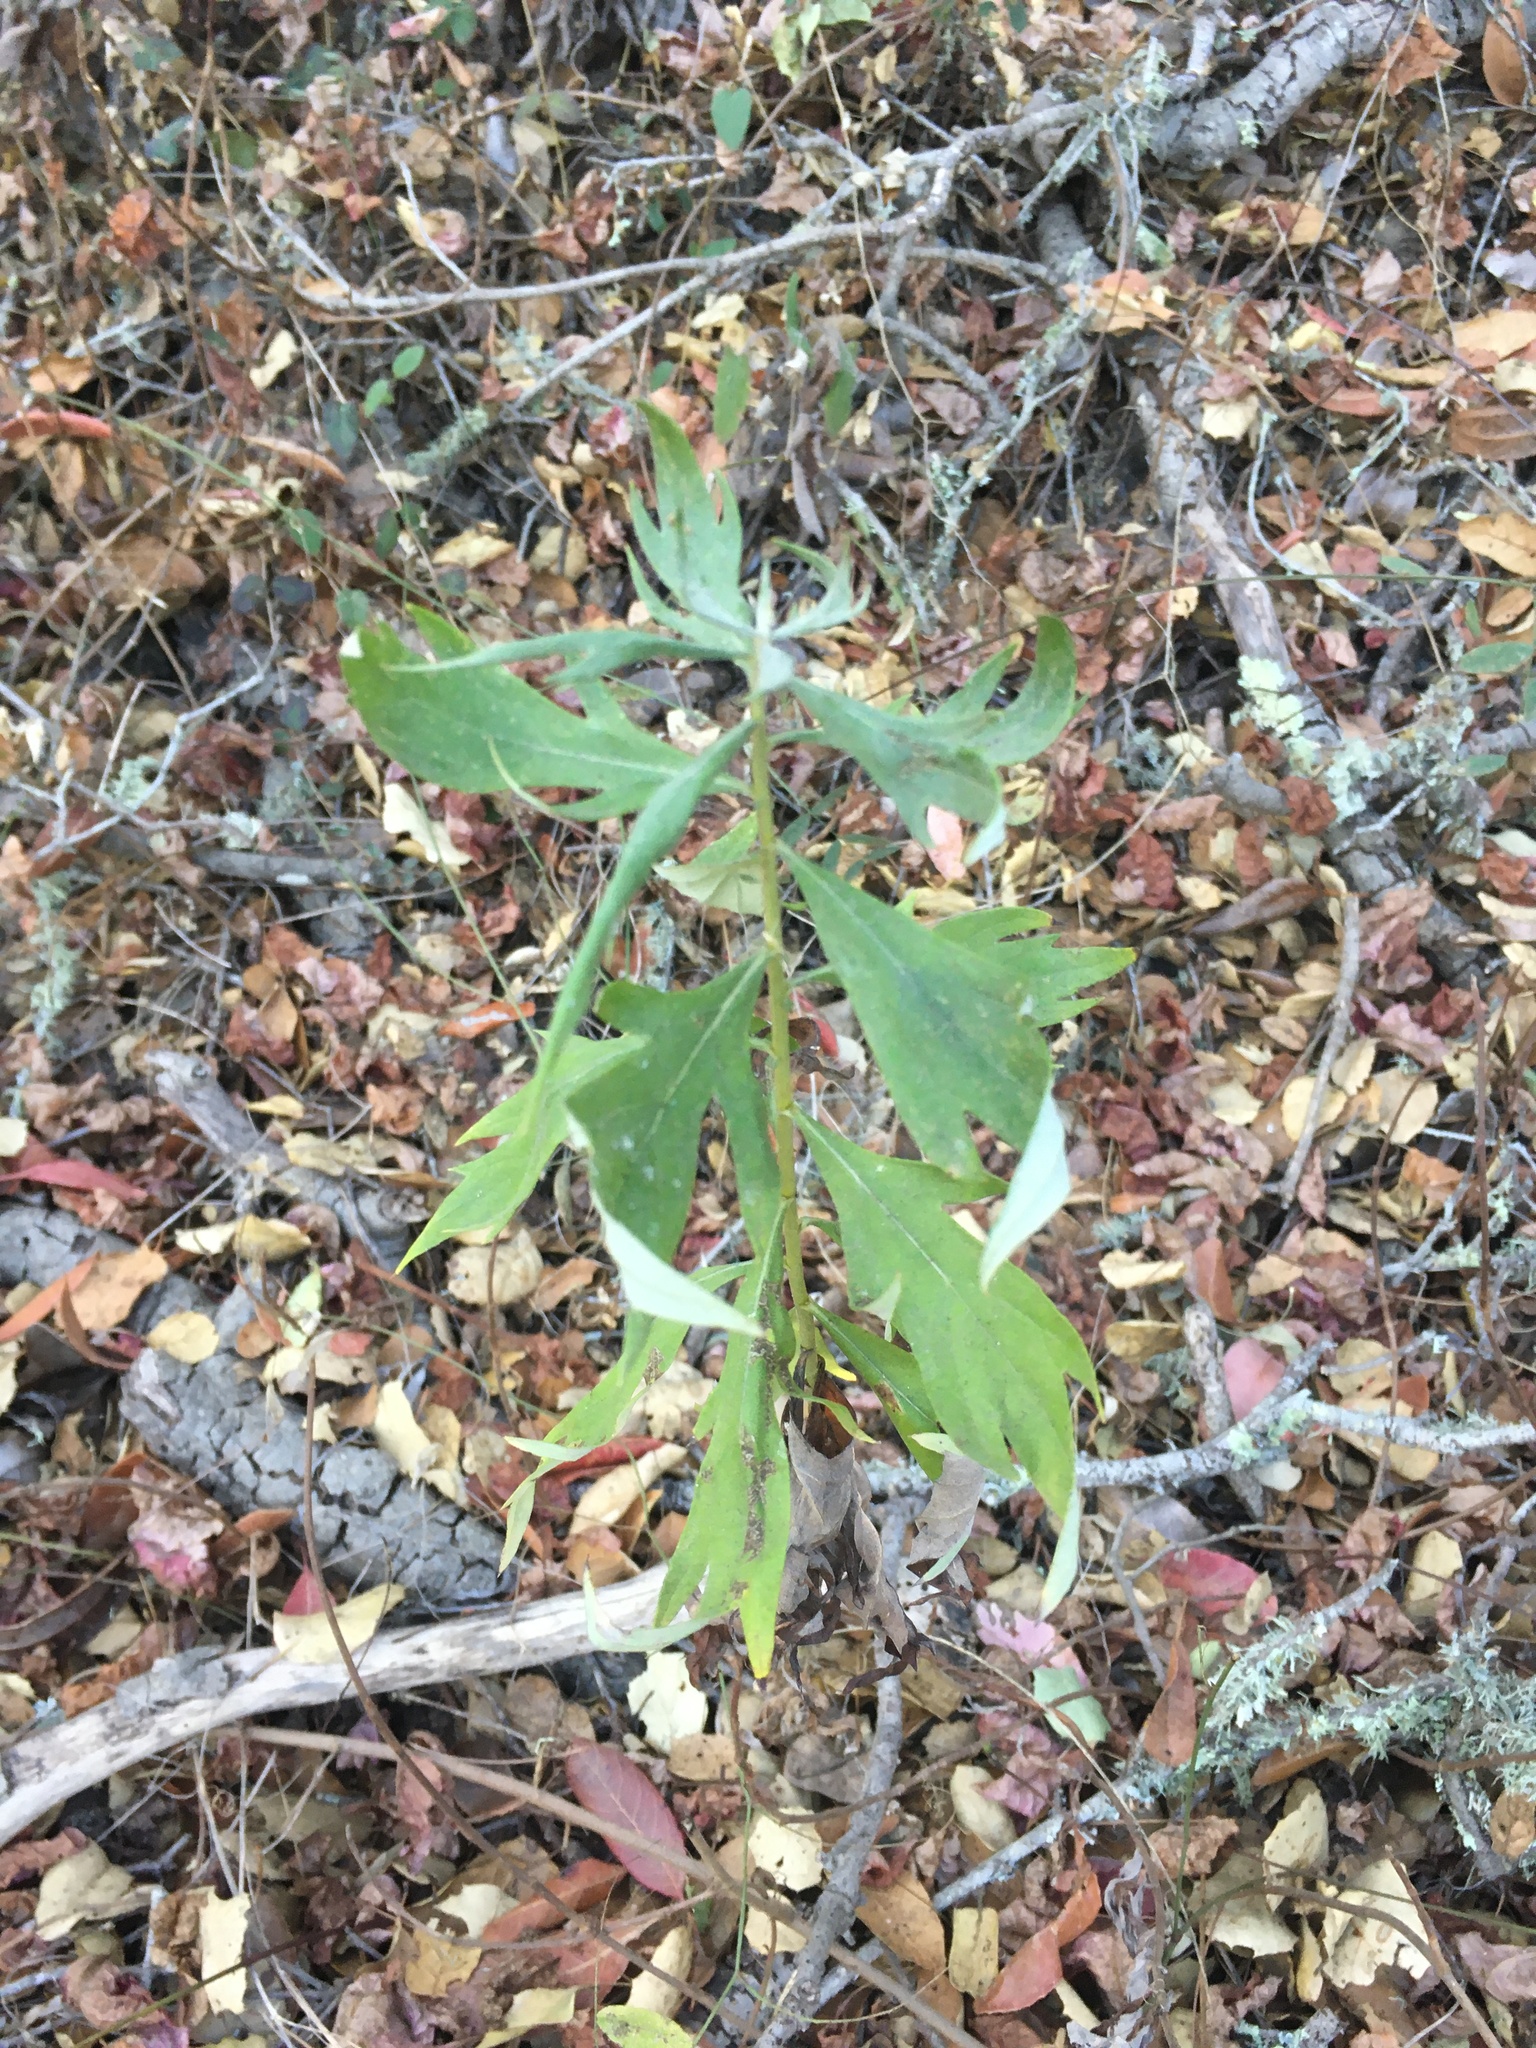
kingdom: Plantae
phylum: Tracheophyta
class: Magnoliopsida
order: Asterales
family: Asteraceae
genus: Artemisia
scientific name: Artemisia douglasiana
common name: Northwest mugwort
